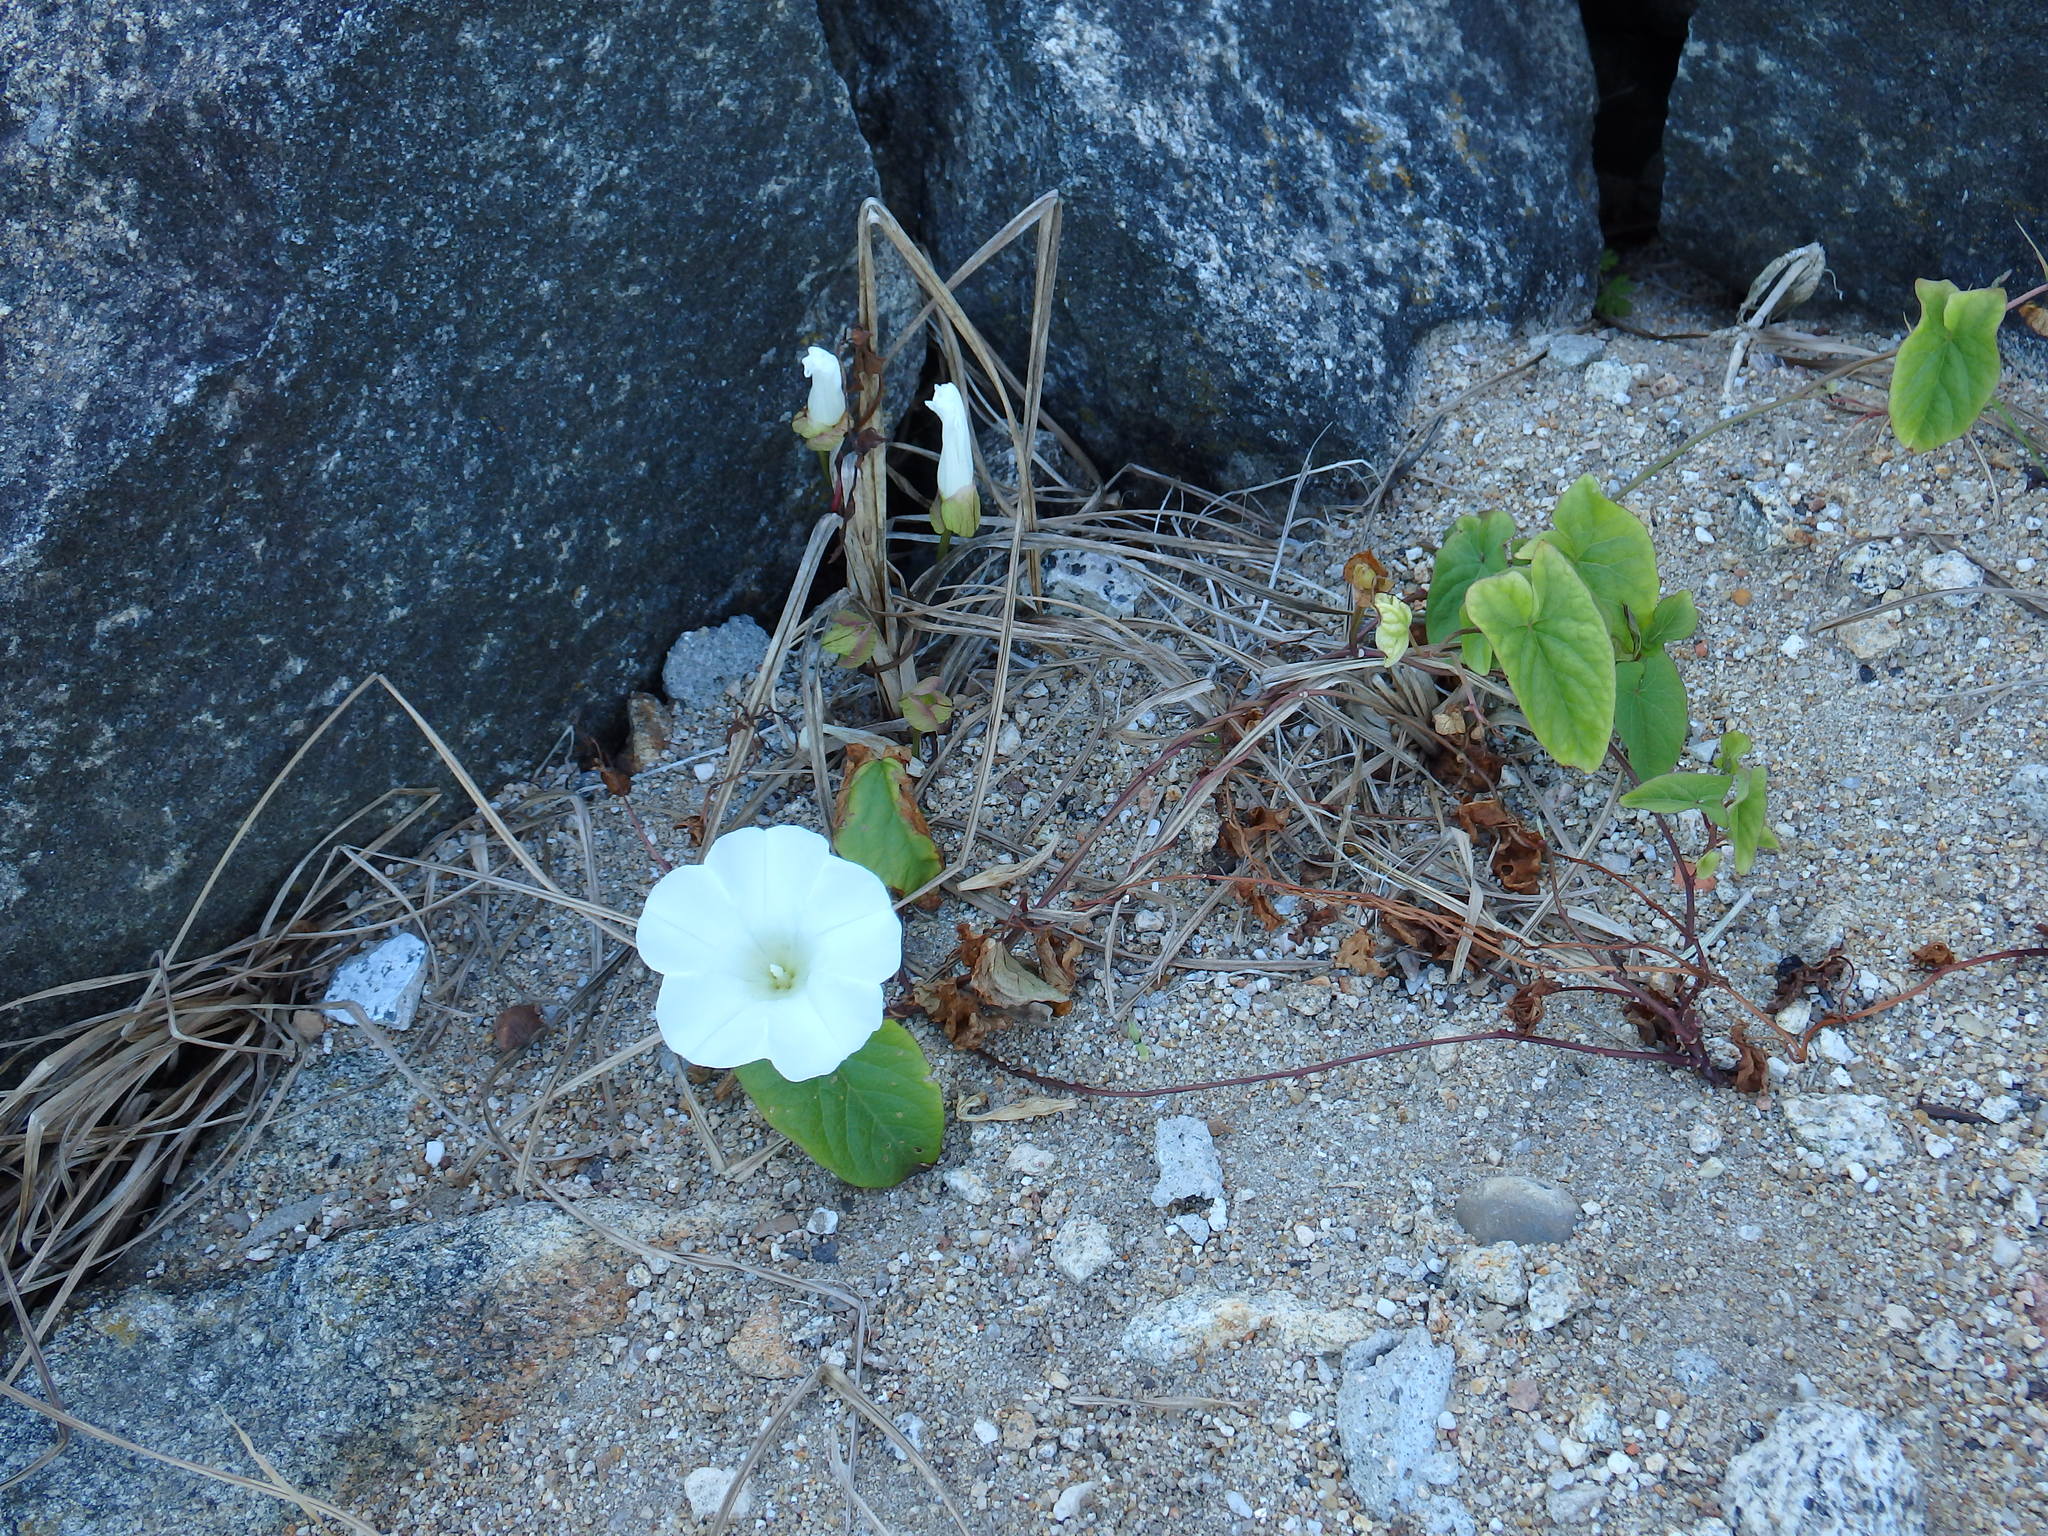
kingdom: Plantae
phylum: Tracheophyta
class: Magnoliopsida
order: Solanales
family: Convolvulaceae
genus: Calystegia
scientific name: Calystegia silvatica
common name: Large bindweed
